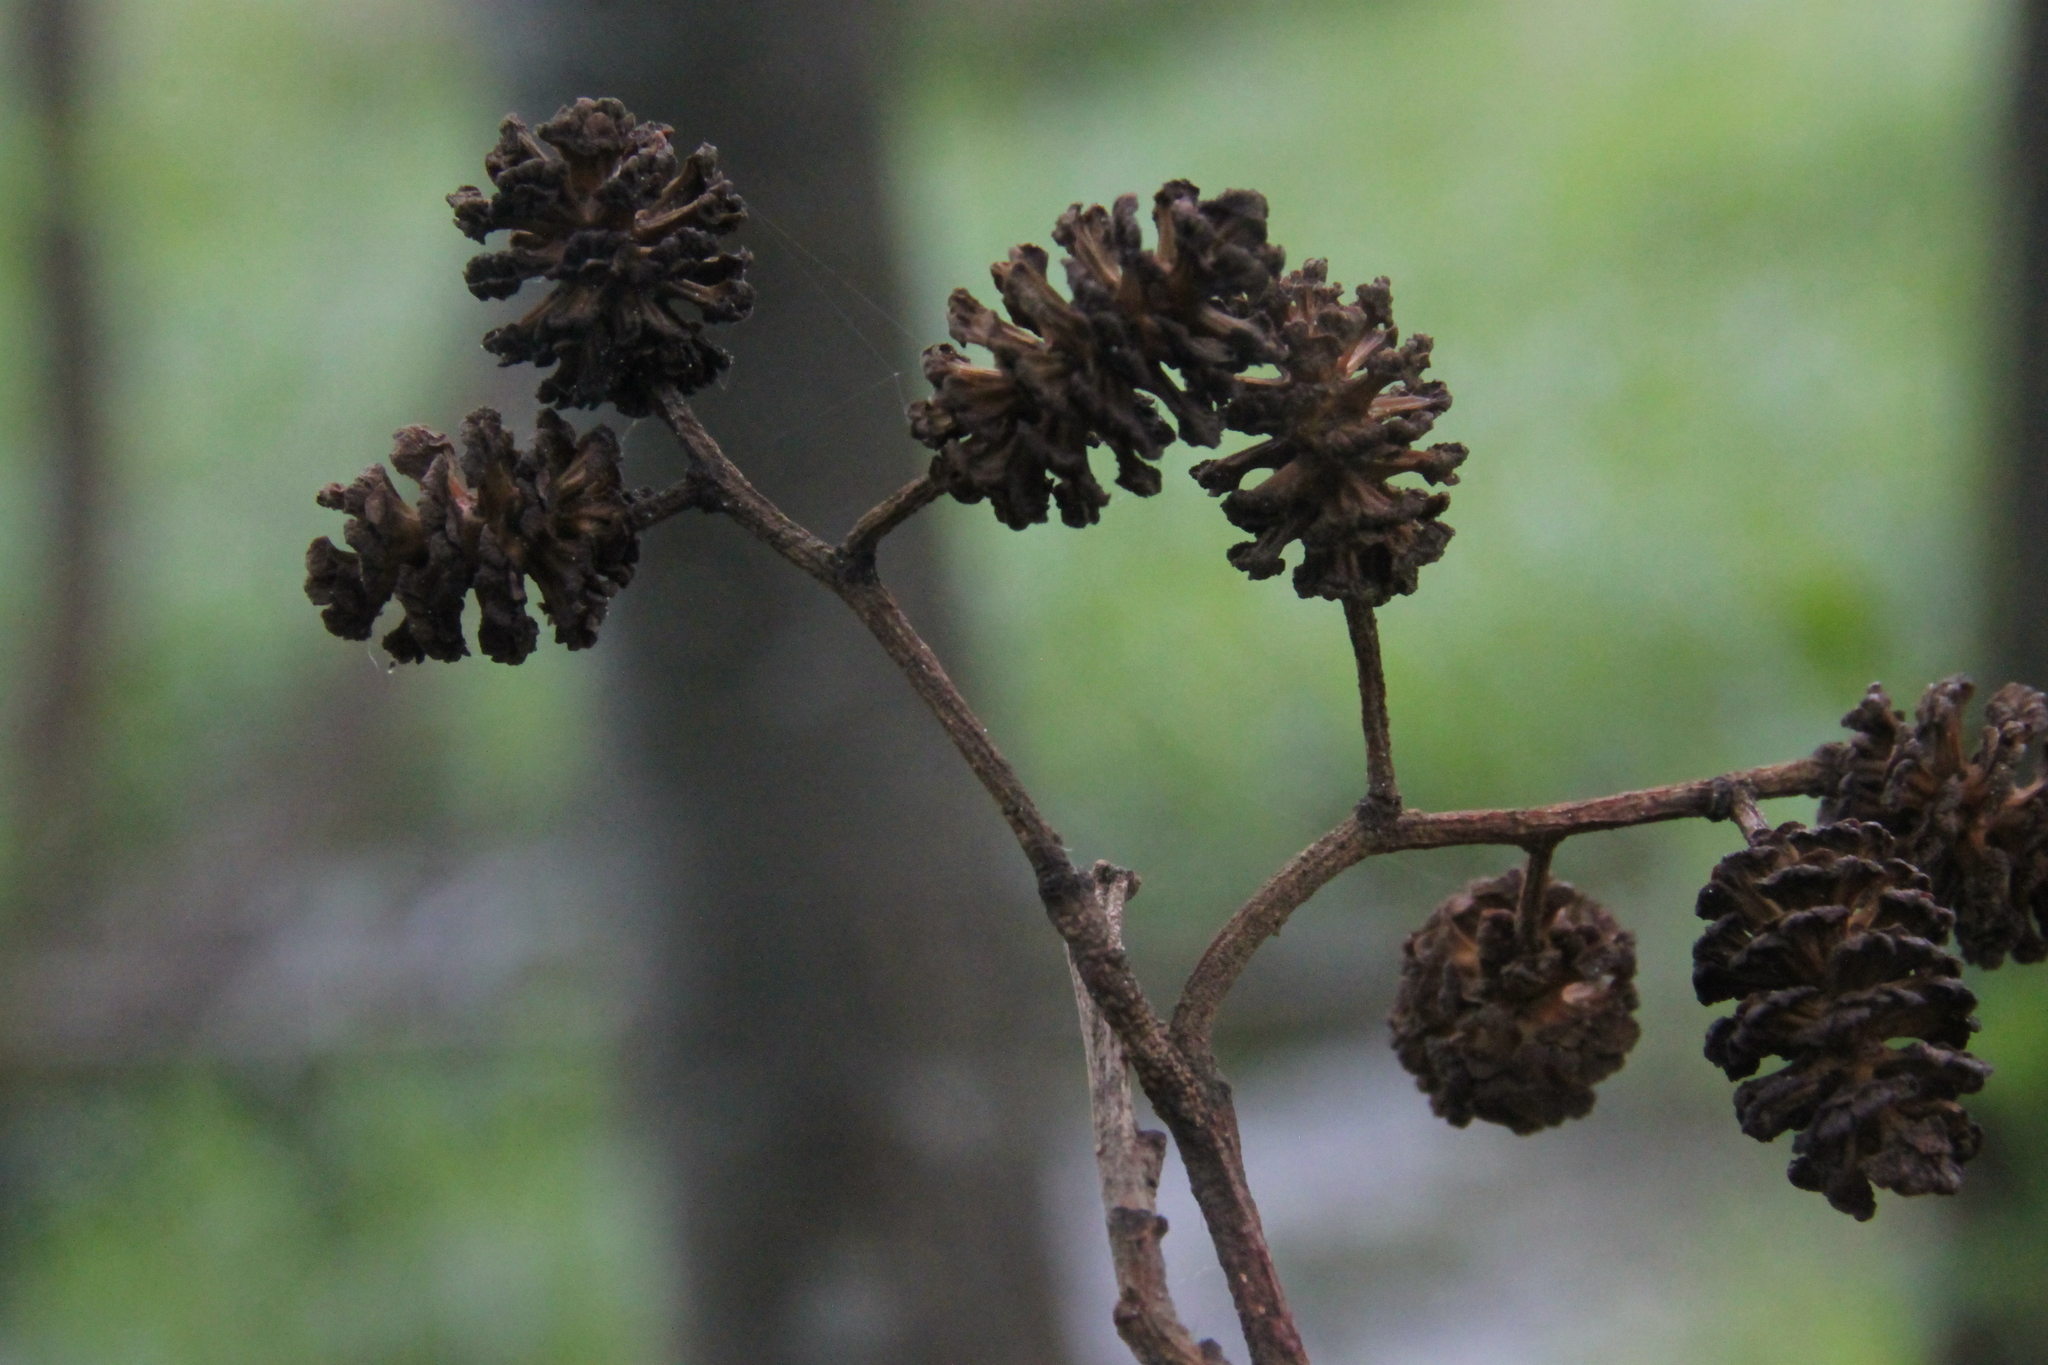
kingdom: Plantae
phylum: Tracheophyta
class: Magnoliopsida
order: Fagales
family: Betulaceae
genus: Alnus
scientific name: Alnus glutinosa
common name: Black alder
